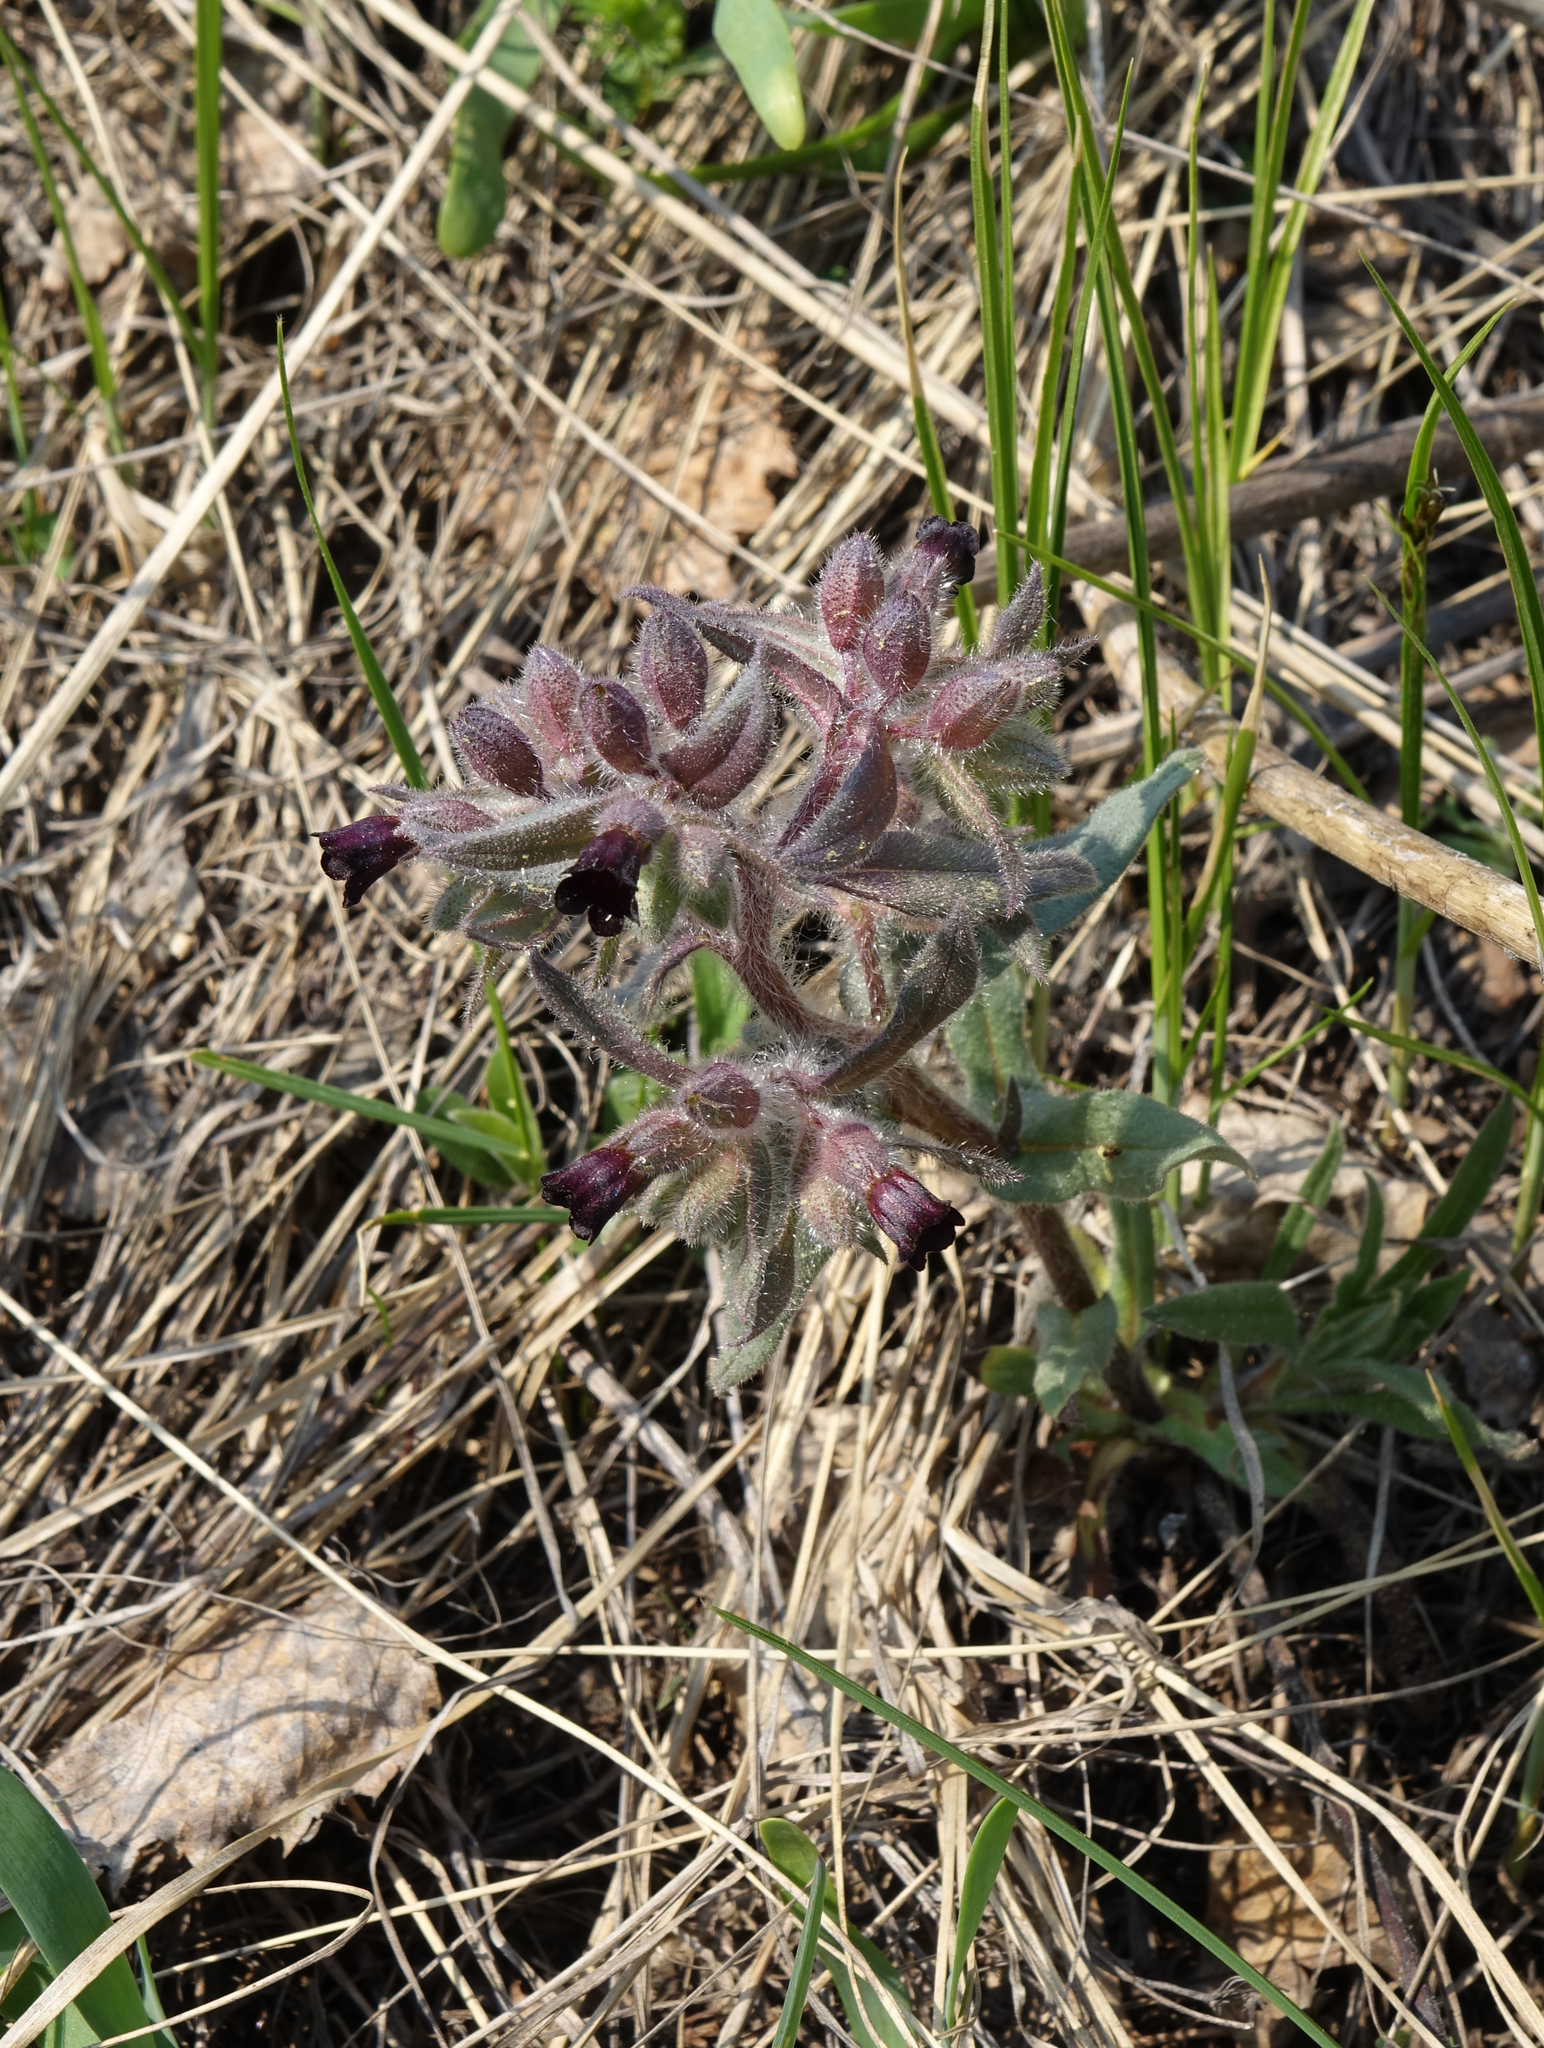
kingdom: Plantae
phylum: Tracheophyta
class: Magnoliopsida
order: Boraginales
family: Boraginaceae
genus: Nonea
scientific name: Nonea pulla
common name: Brown nonea
